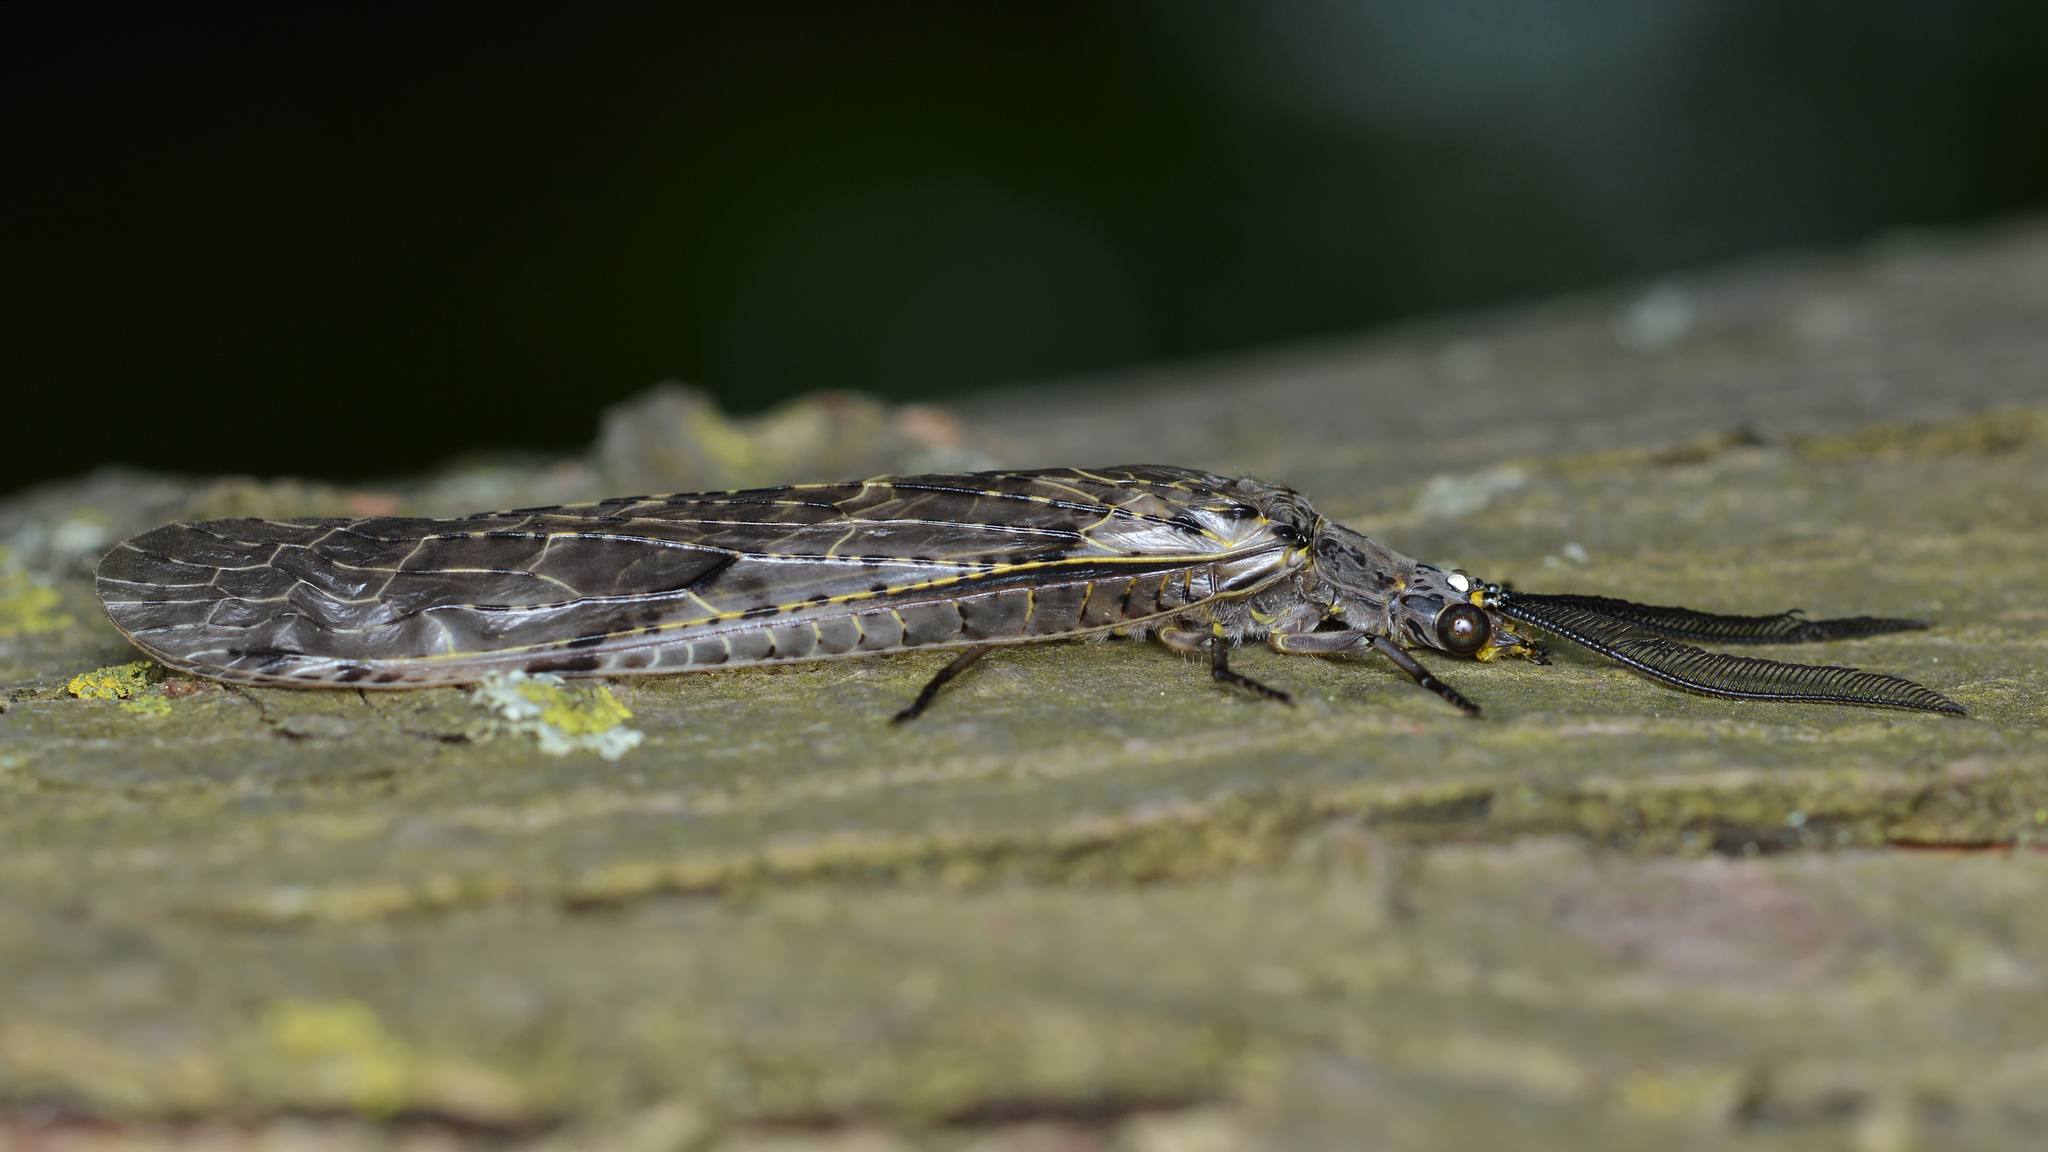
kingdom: Animalia
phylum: Arthropoda
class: Insecta
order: Megaloptera
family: Corydalidae
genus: Chauliodes
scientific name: Chauliodes rastricornis
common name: Spring fishfly
